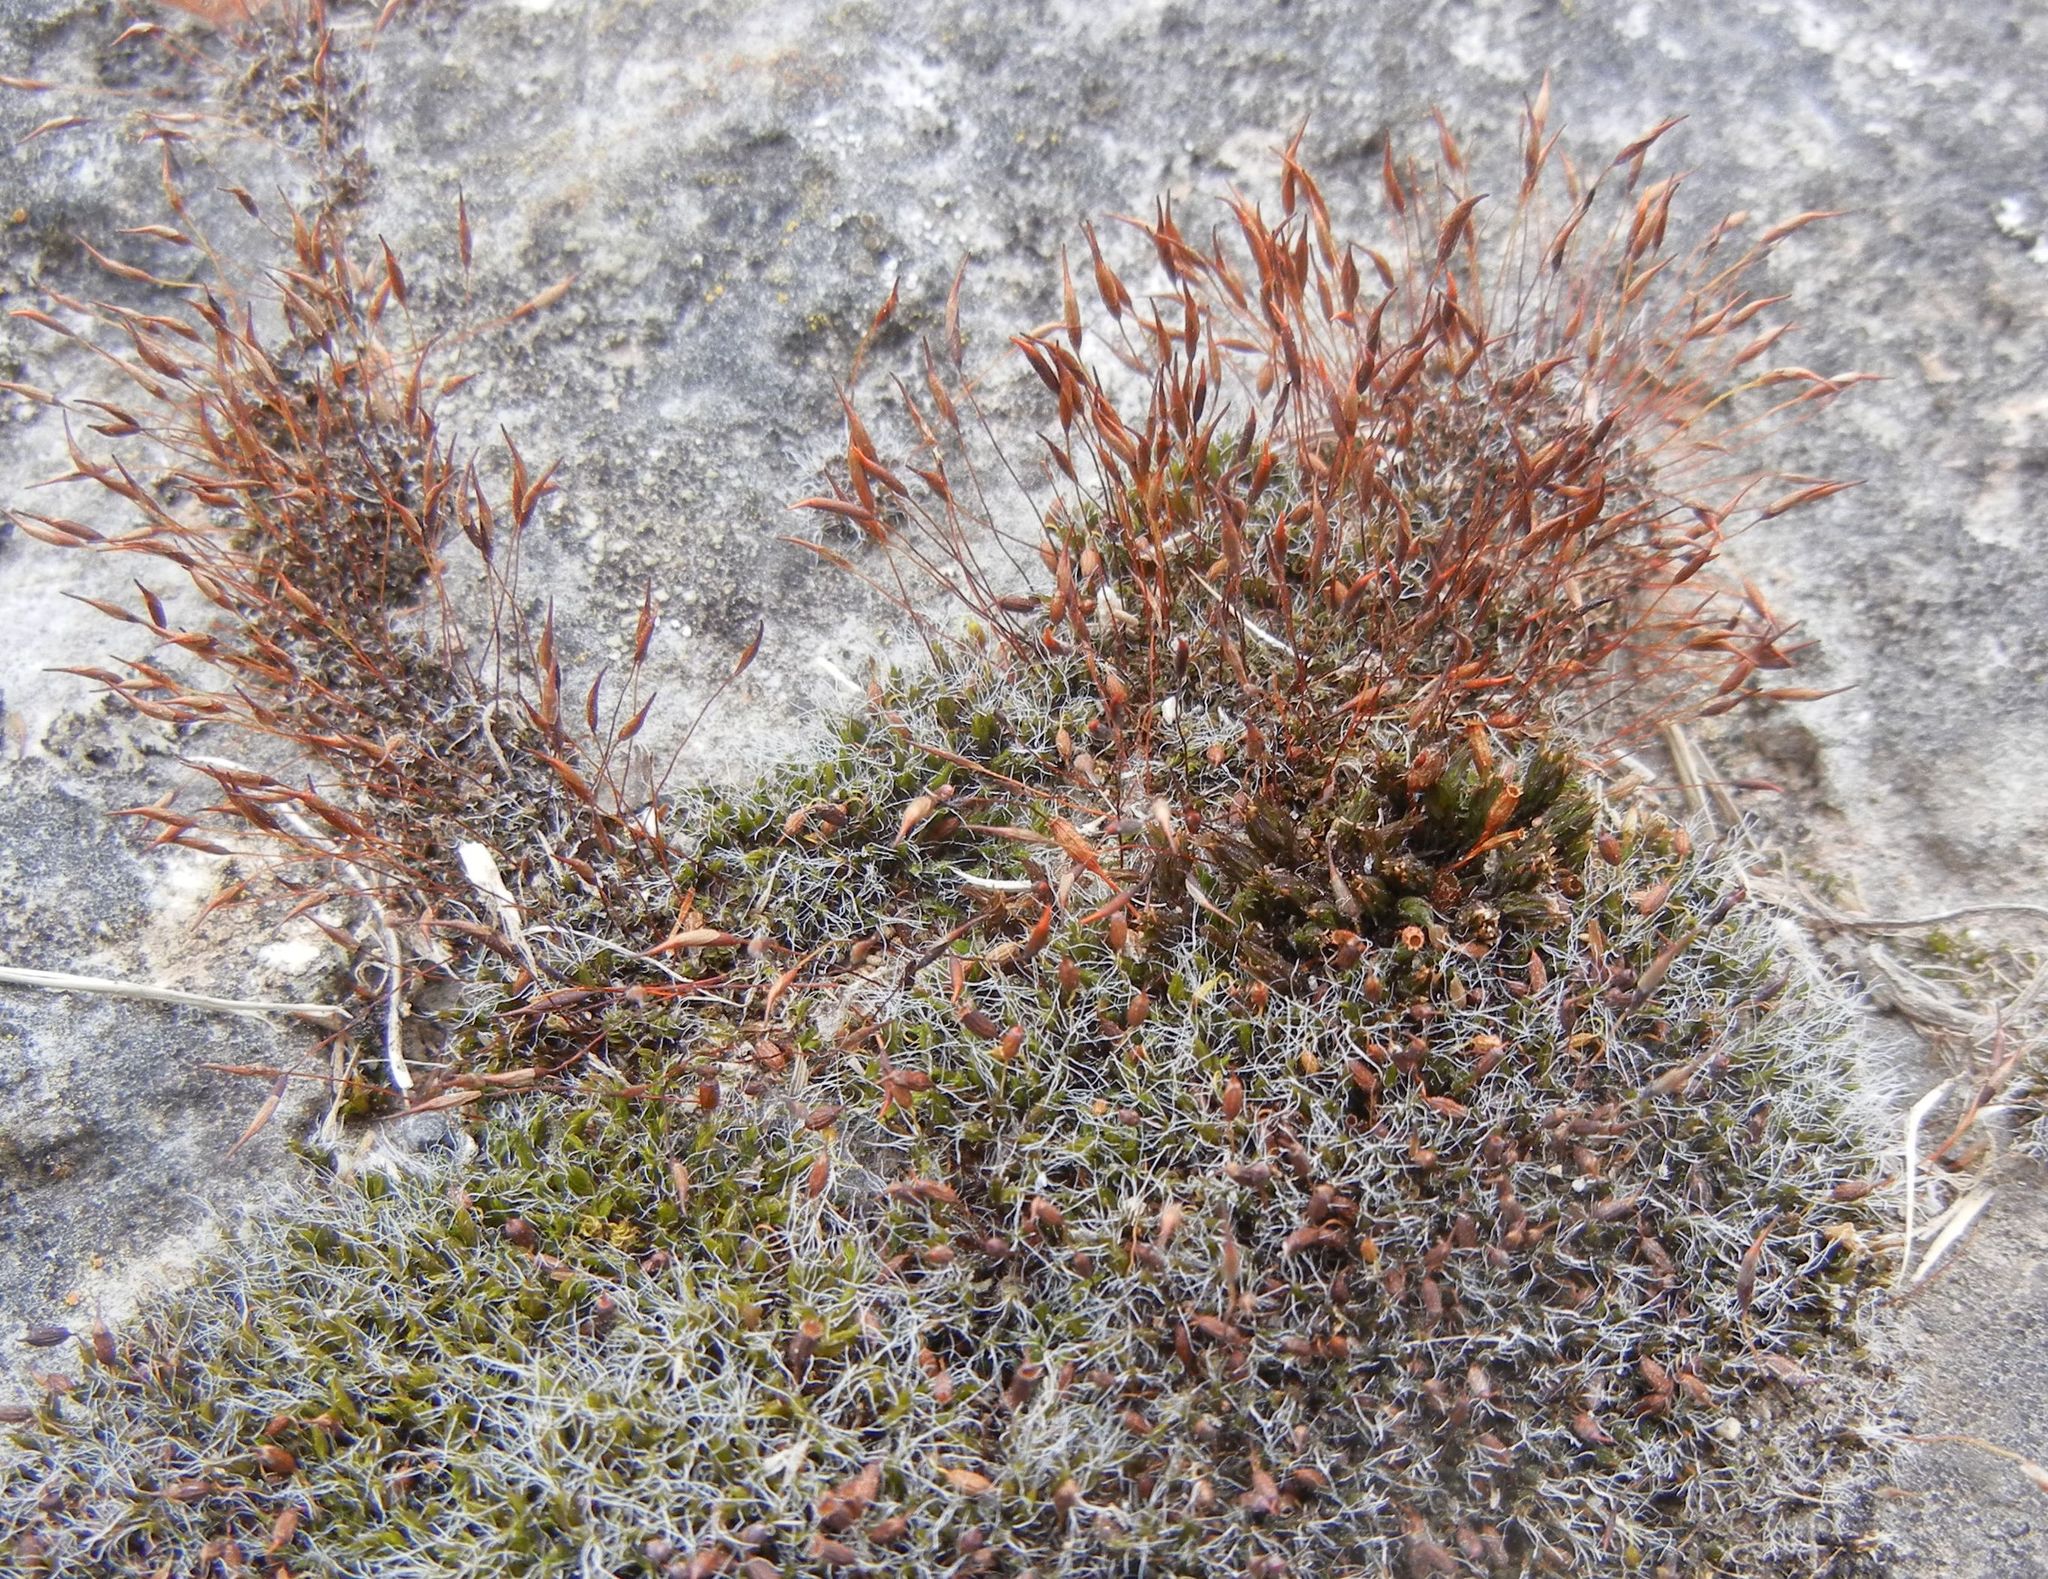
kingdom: Plantae
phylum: Bryophyta
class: Bryopsida
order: Pottiales
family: Pottiaceae
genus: Tortula
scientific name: Tortula muralis
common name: Wall screw-moss
